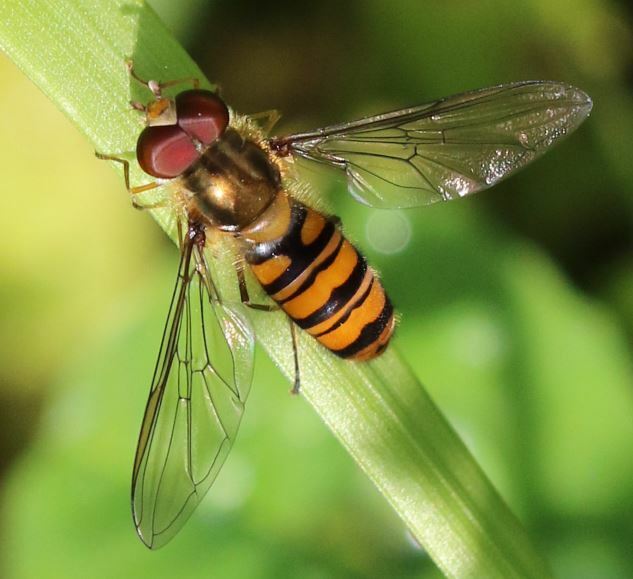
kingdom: Animalia
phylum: Arthropoda
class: Insecta
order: Diptera
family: Syrphidae
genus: Episyrphus
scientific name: Episyrphus balteatus
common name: Marmalade hoverfly
